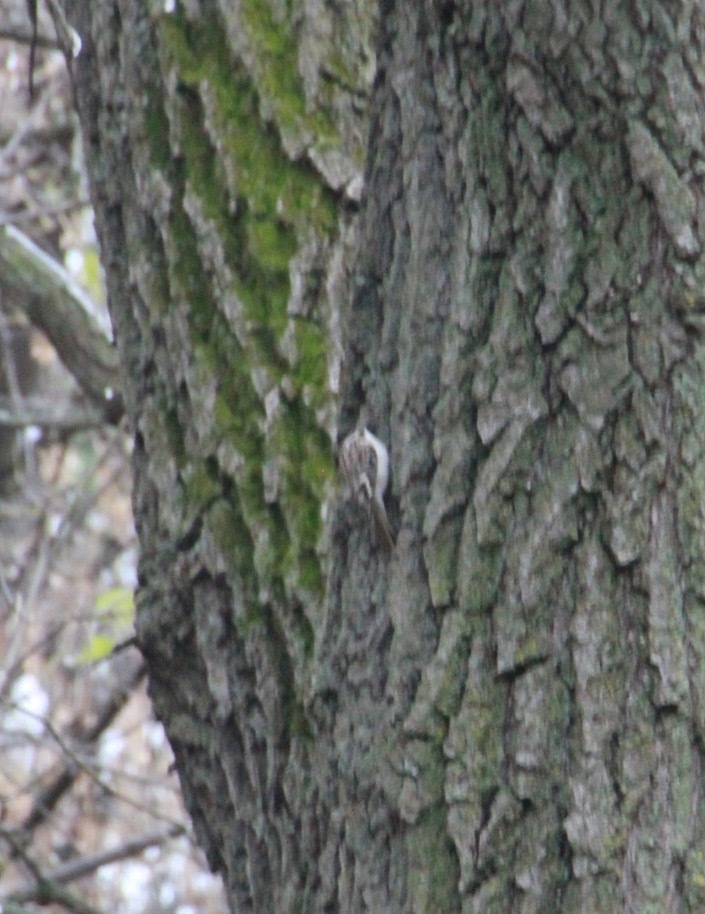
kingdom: Animalia
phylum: Chordata
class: Aves
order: Passeriformes
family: Certhiidae
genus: Certhia
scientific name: Certhia americana
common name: Brown creeper
